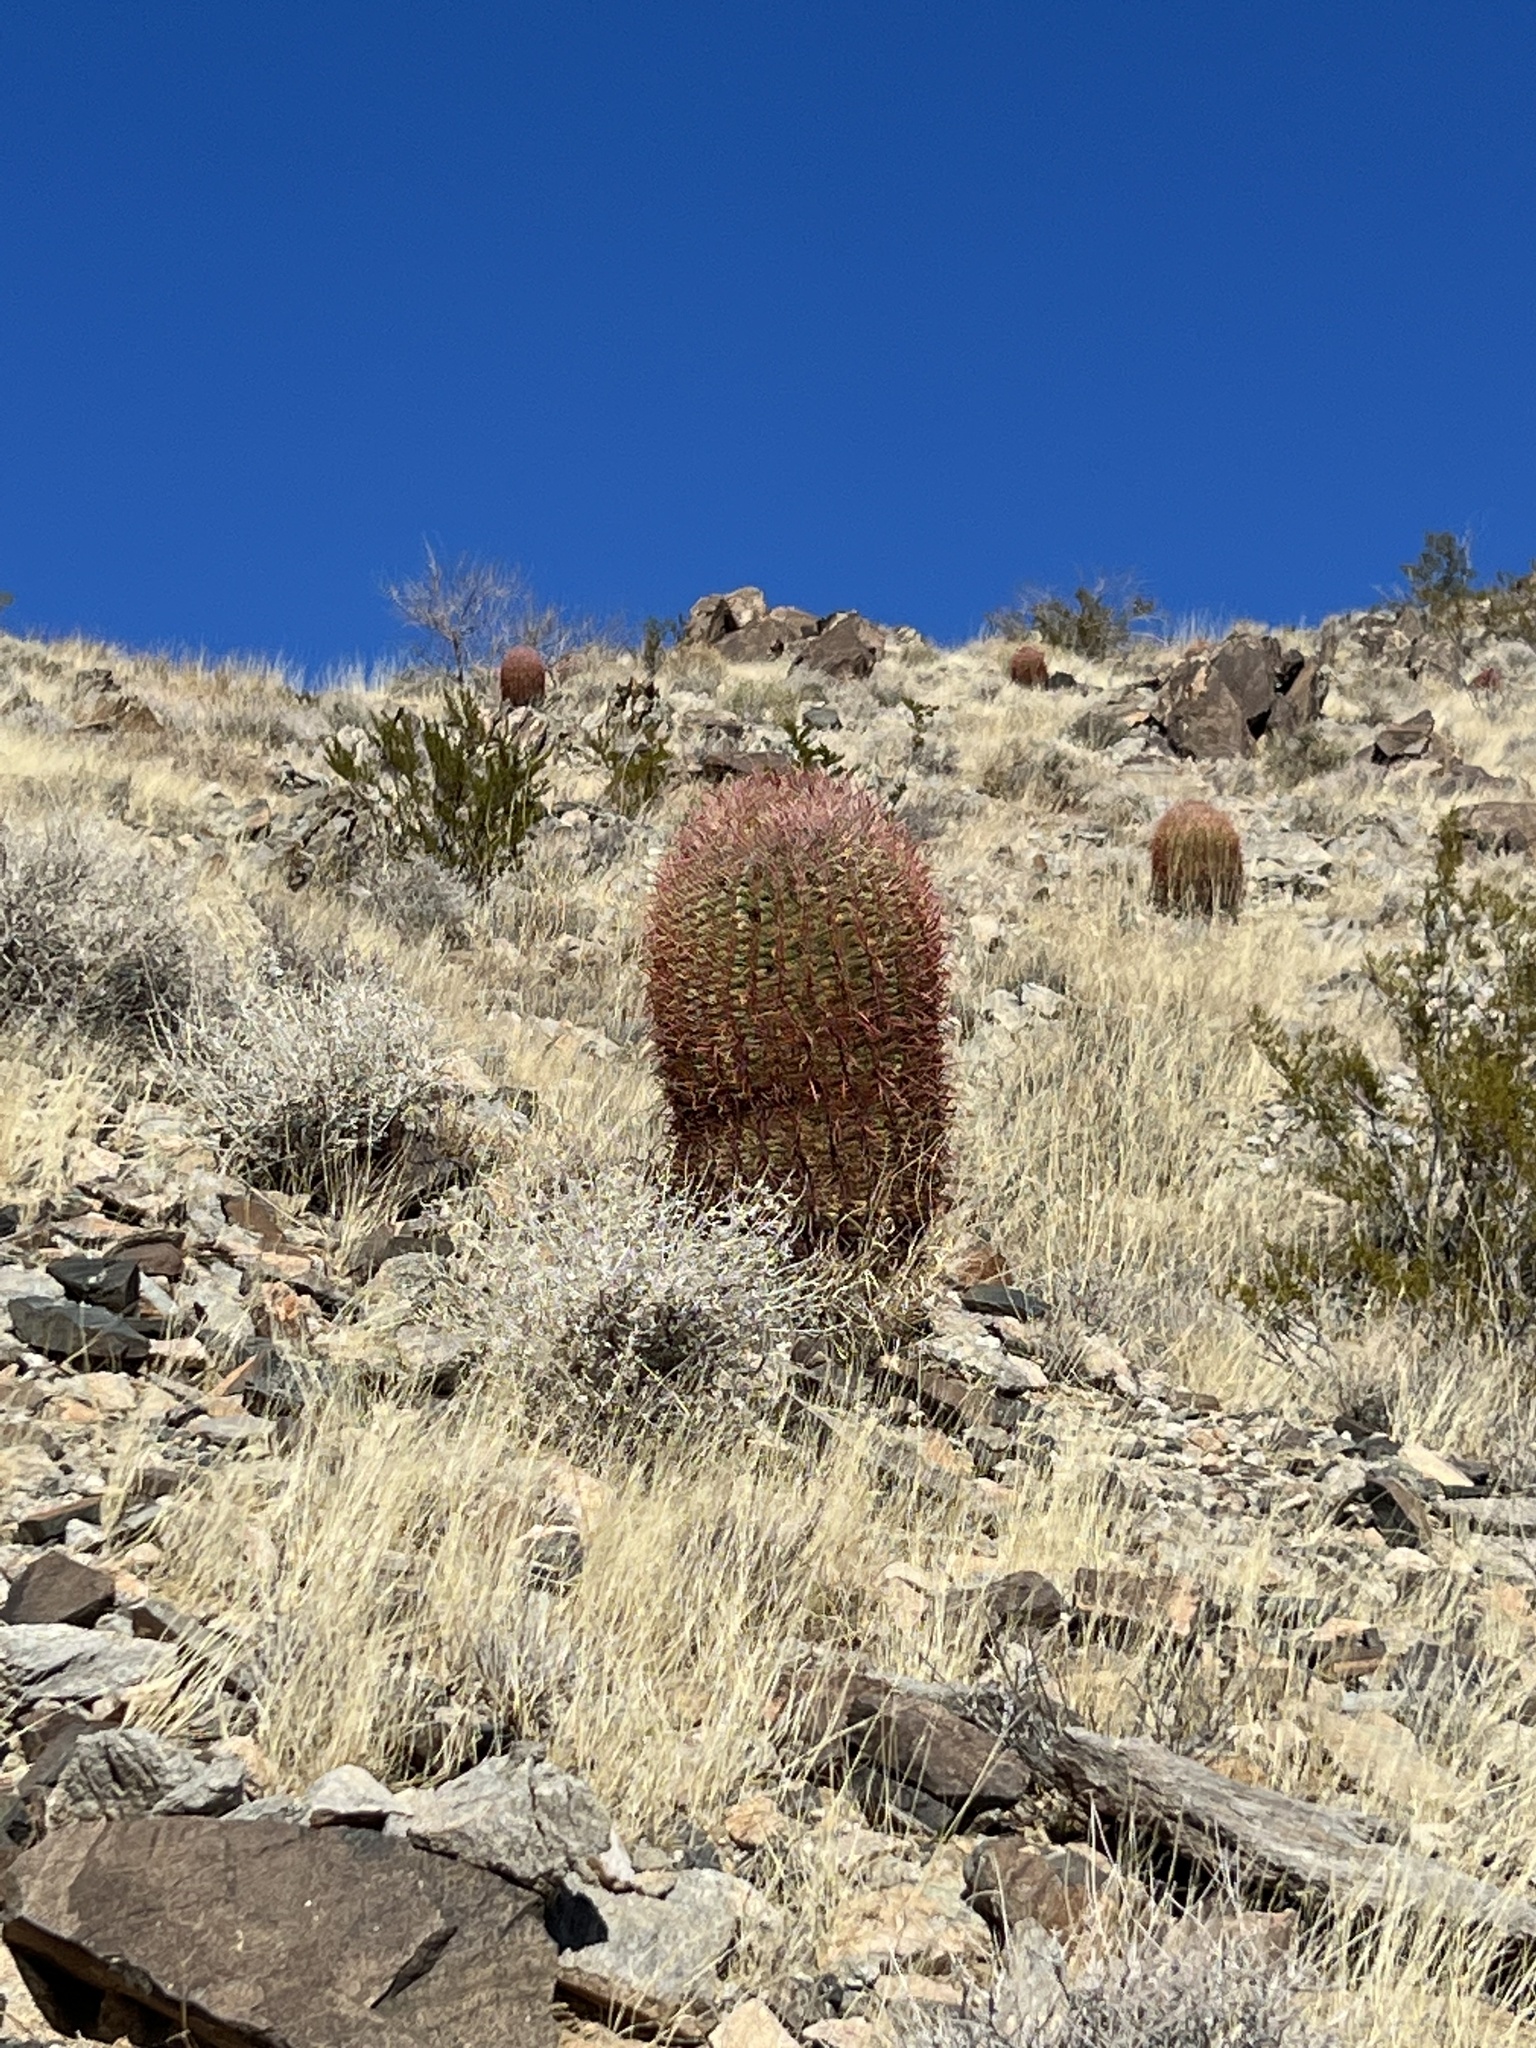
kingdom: Plantae
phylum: Tracheophyta
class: Magnoliopsida
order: Caryophyllales
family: Cactaceae
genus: Ferocactus
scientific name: Ferocactus cylindraceus
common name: California barrel cactus
